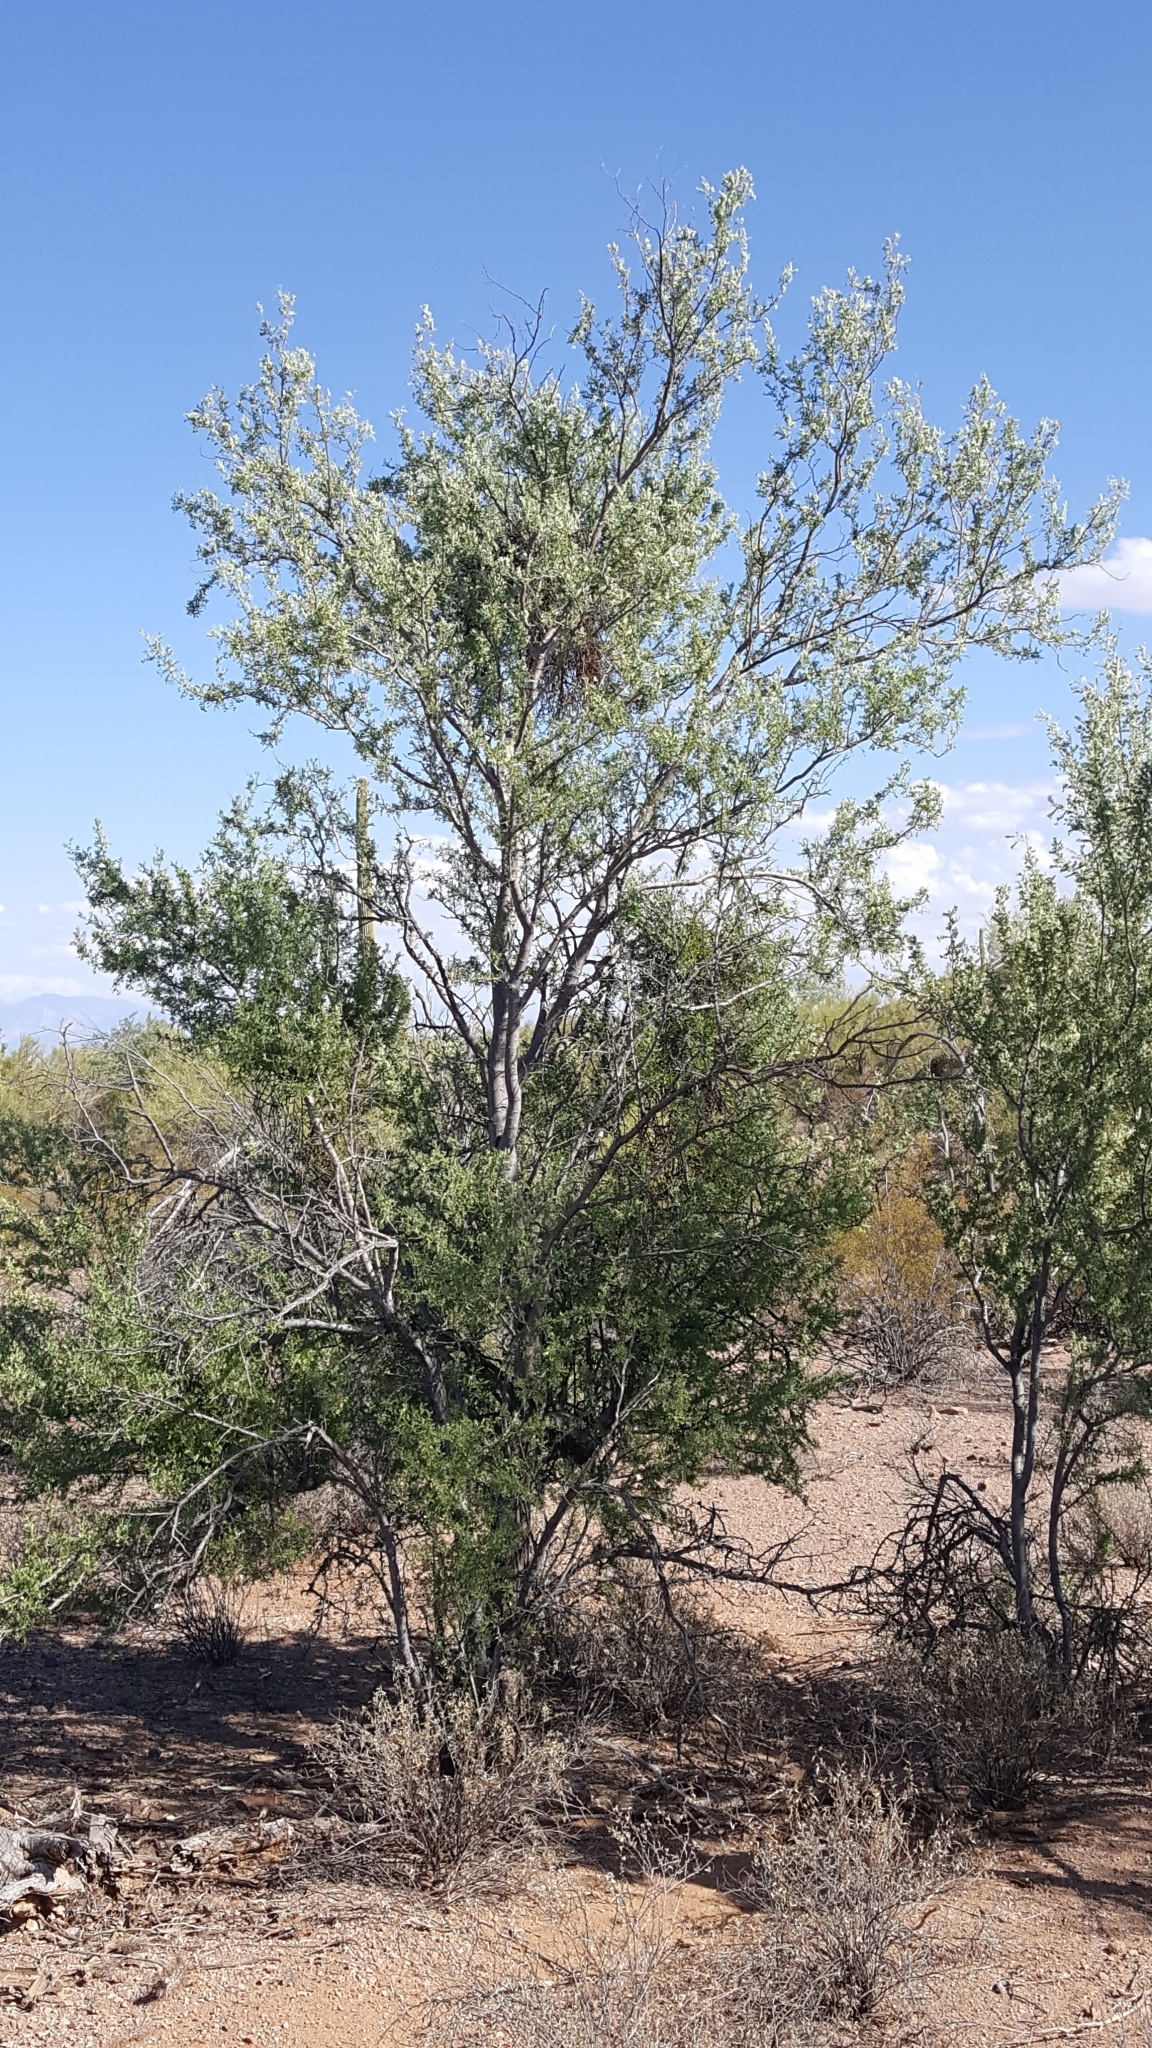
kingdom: Plantae
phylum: Tracheophyta
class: Magnoliopsida
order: Fabales
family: Fabaceae
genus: Olneya
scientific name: Olneya tesota
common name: Desert ironwood
